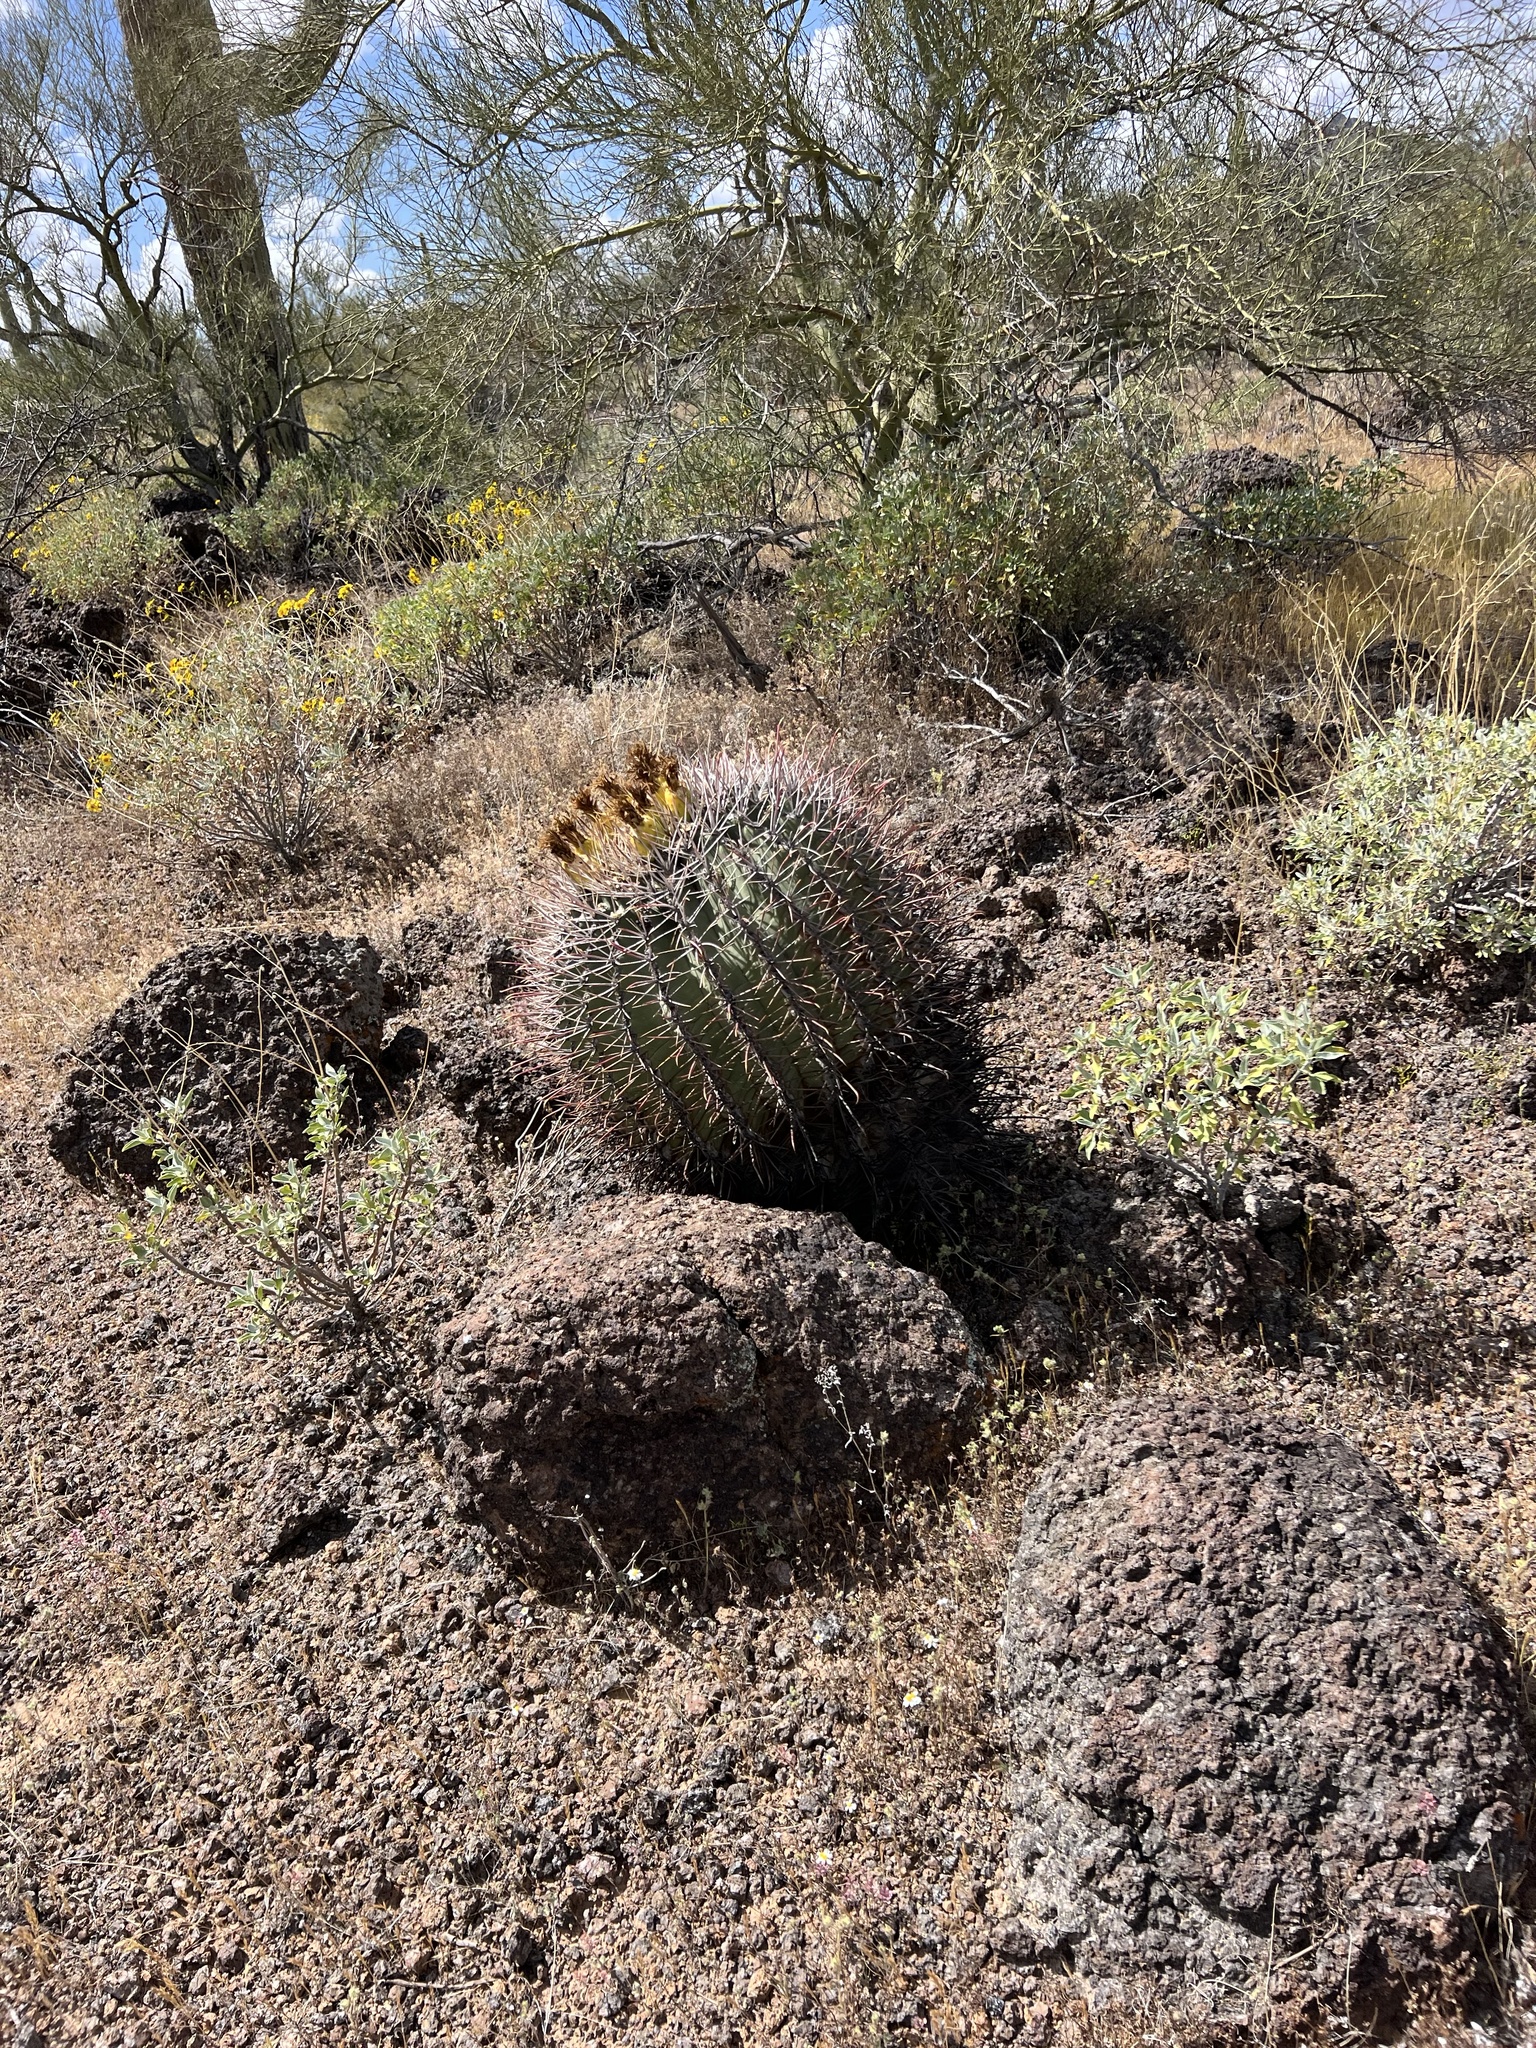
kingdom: Plantae
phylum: Tracheophyta
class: Magnoliopsida
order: Caryophyllales
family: Cactaceae
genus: Ferocactus
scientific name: Ferocactus emoryi
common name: Emory's barrel cactus
